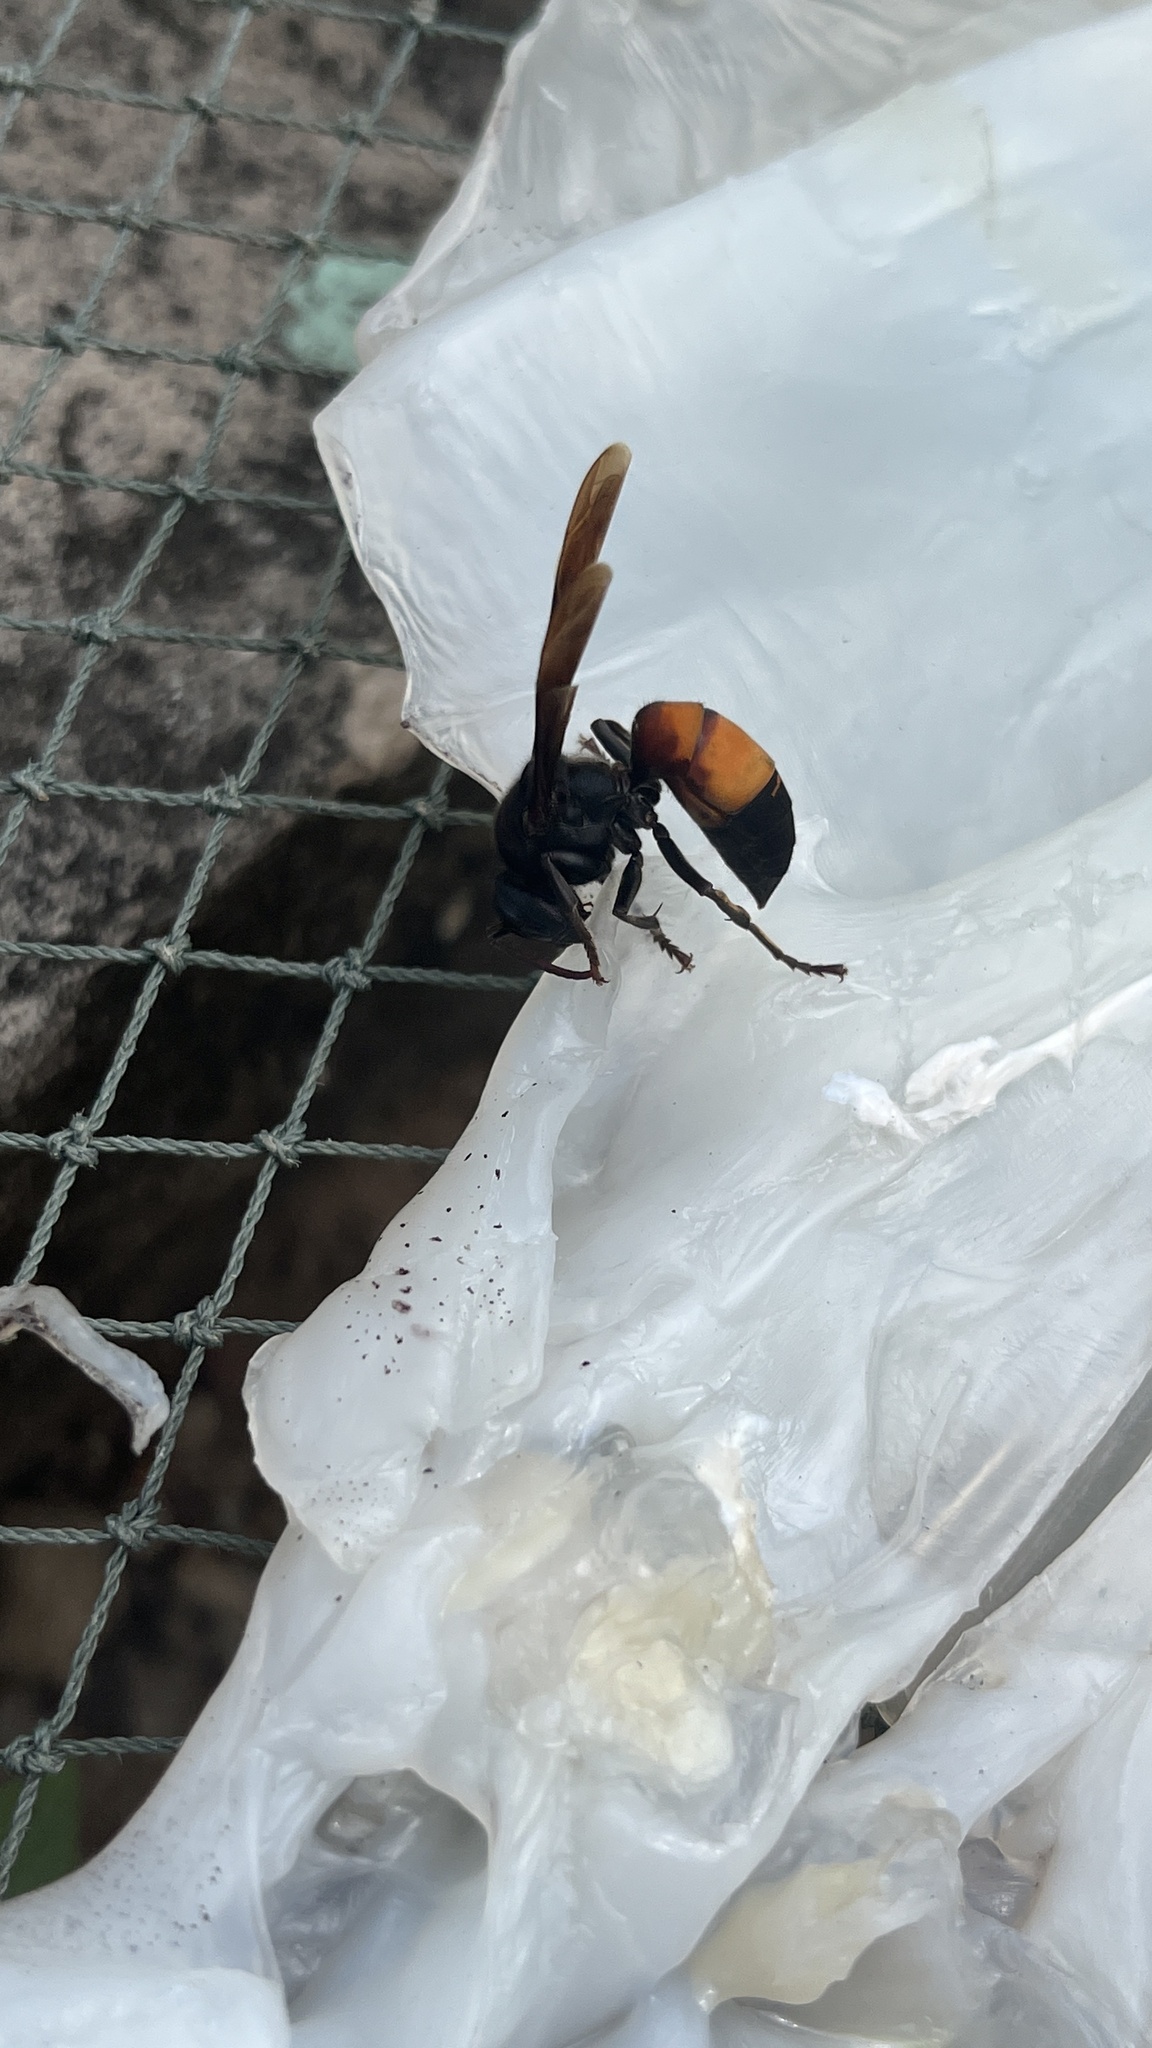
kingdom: Animalia
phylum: Arthropoda
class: Insecta
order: Hymenoptera
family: Vespidae
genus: Vespa
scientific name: Vespa affinis
